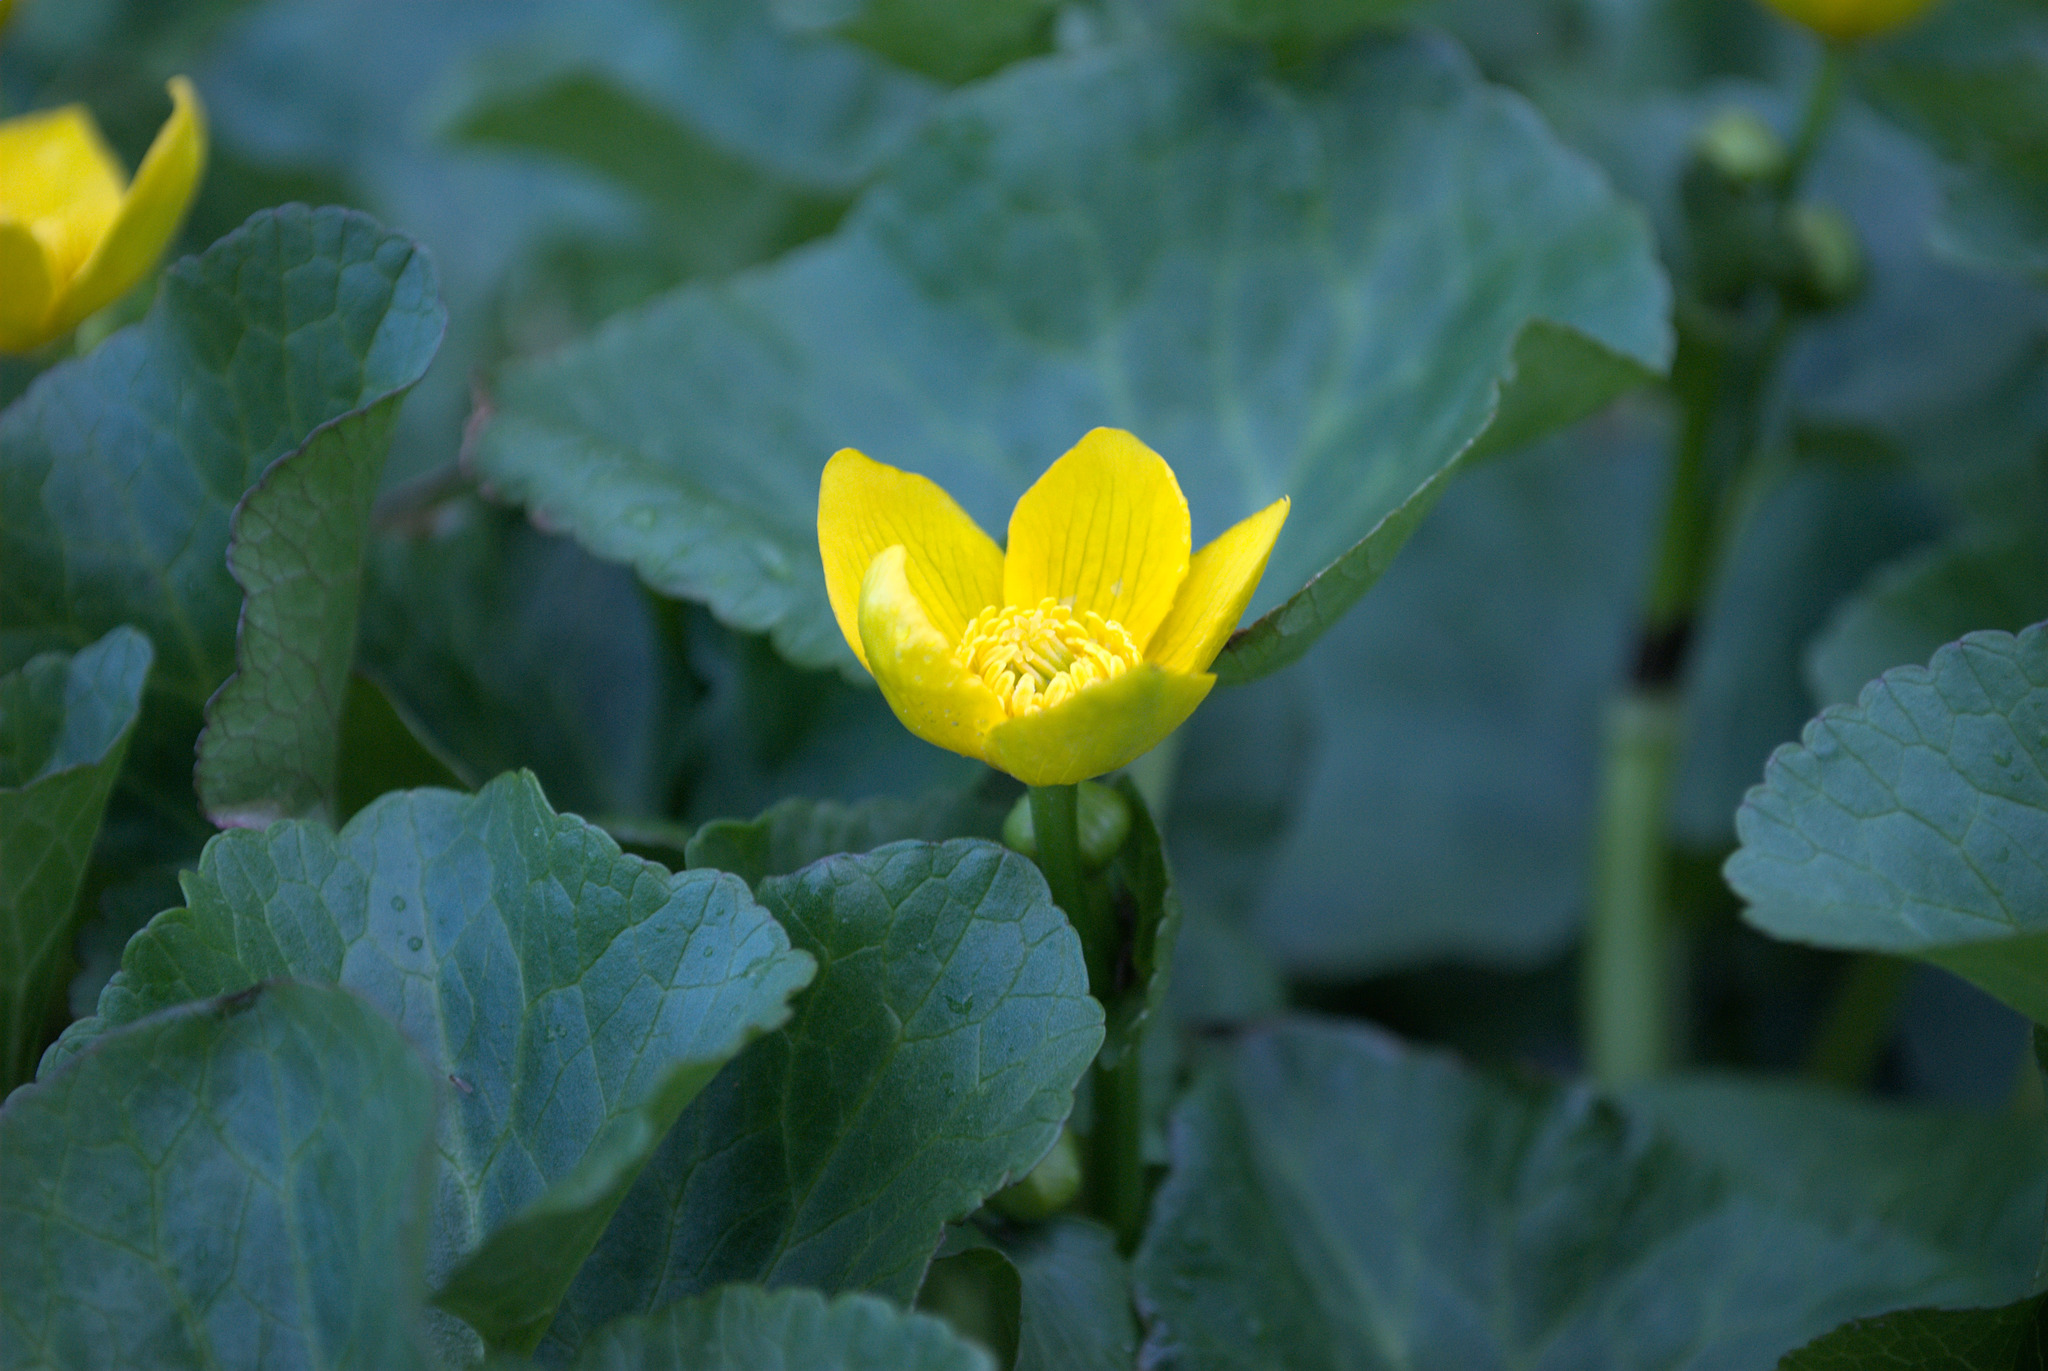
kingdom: Plantae
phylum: Tracheophyta
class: Magnoliopsida
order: Ranunculales
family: Ranunculaceae
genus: Caltha
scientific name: Caltha palustris
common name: Marsh marigold
